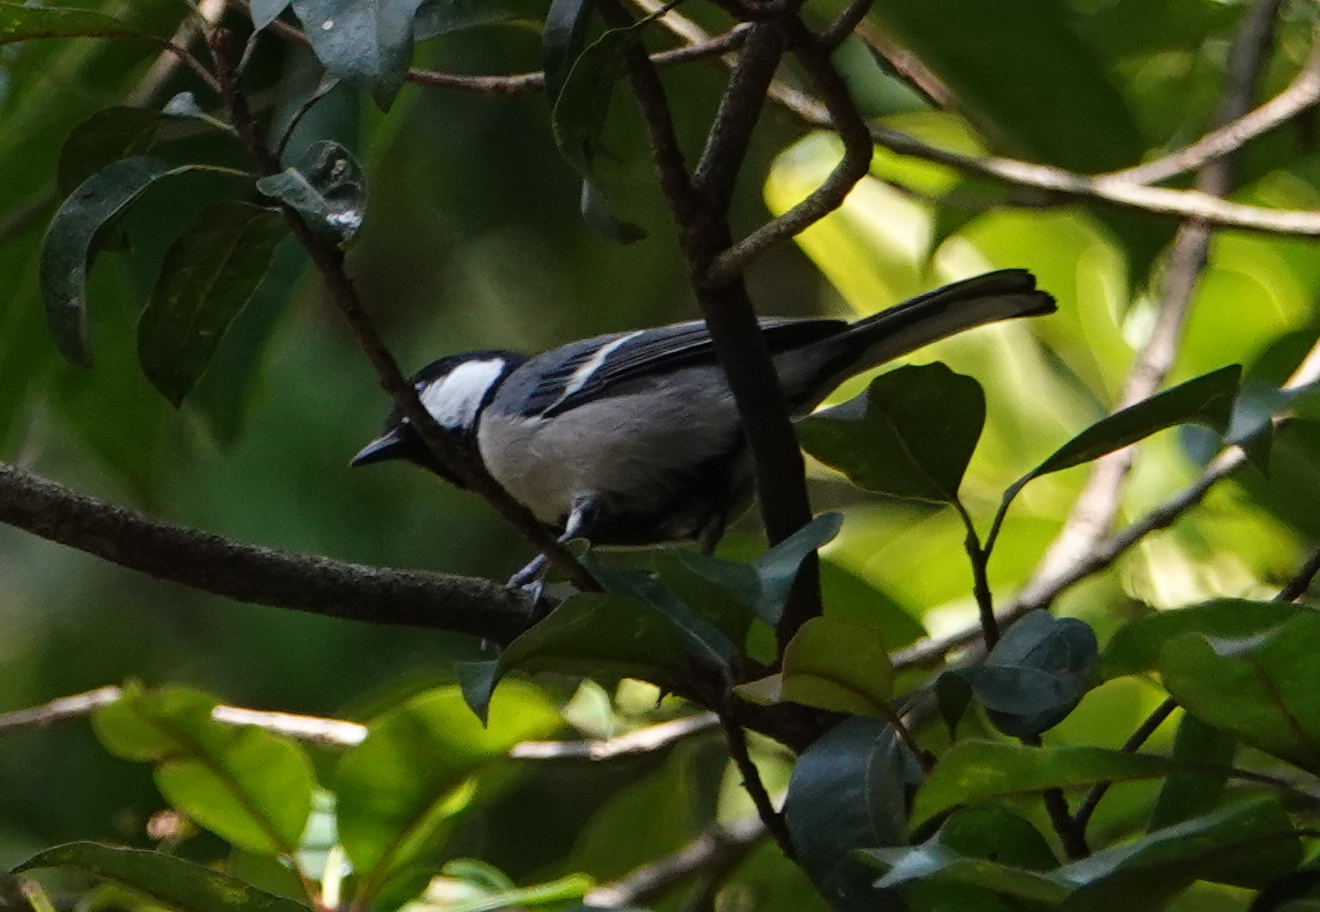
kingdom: Animalia
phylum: Chordata
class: Aves
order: Passeriformes
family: Paridae
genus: Parus
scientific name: Parus cinereus
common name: Cinereous tit
